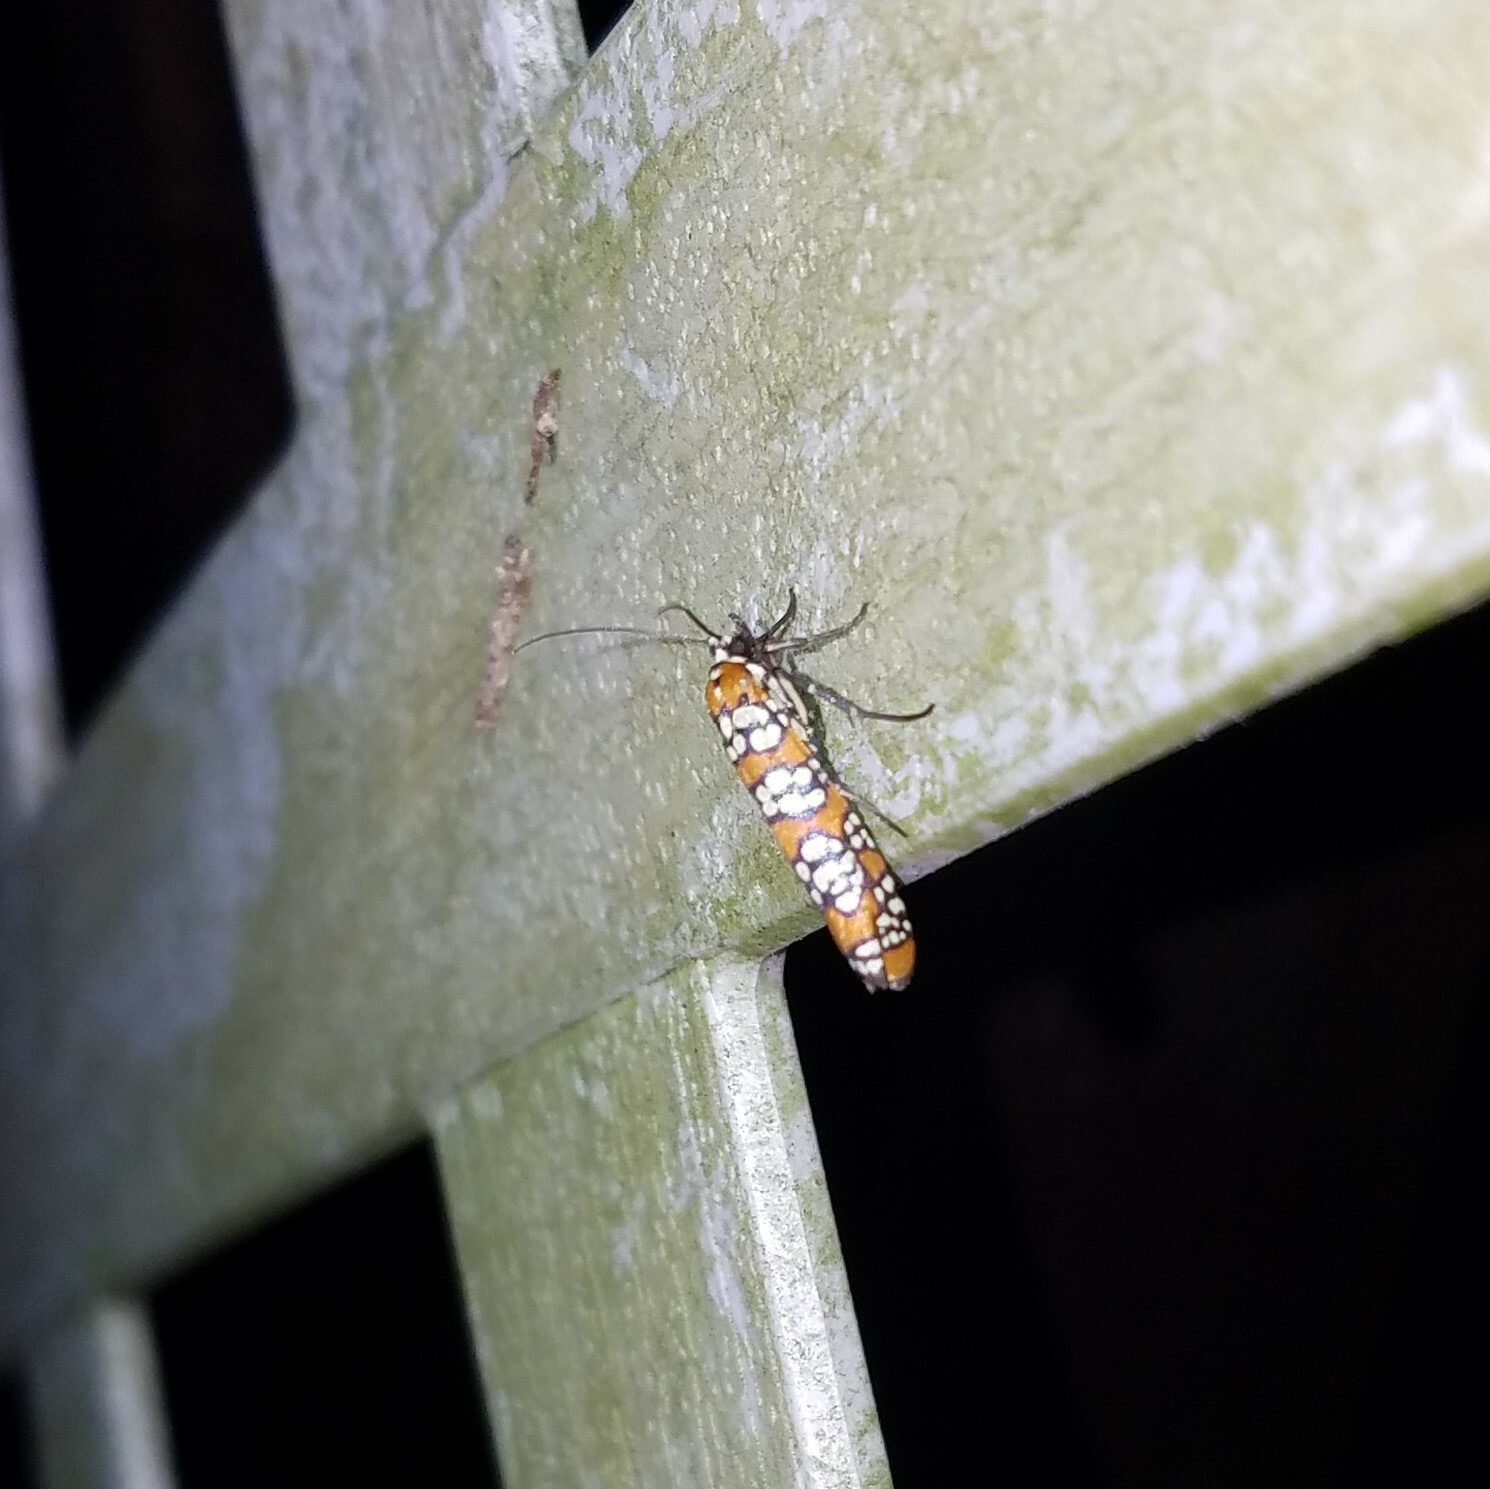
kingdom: Animalia
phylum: Arthropoda
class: Insecta
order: Lepidoptera
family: Attevidae
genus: Atteva
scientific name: Atteva punctella
